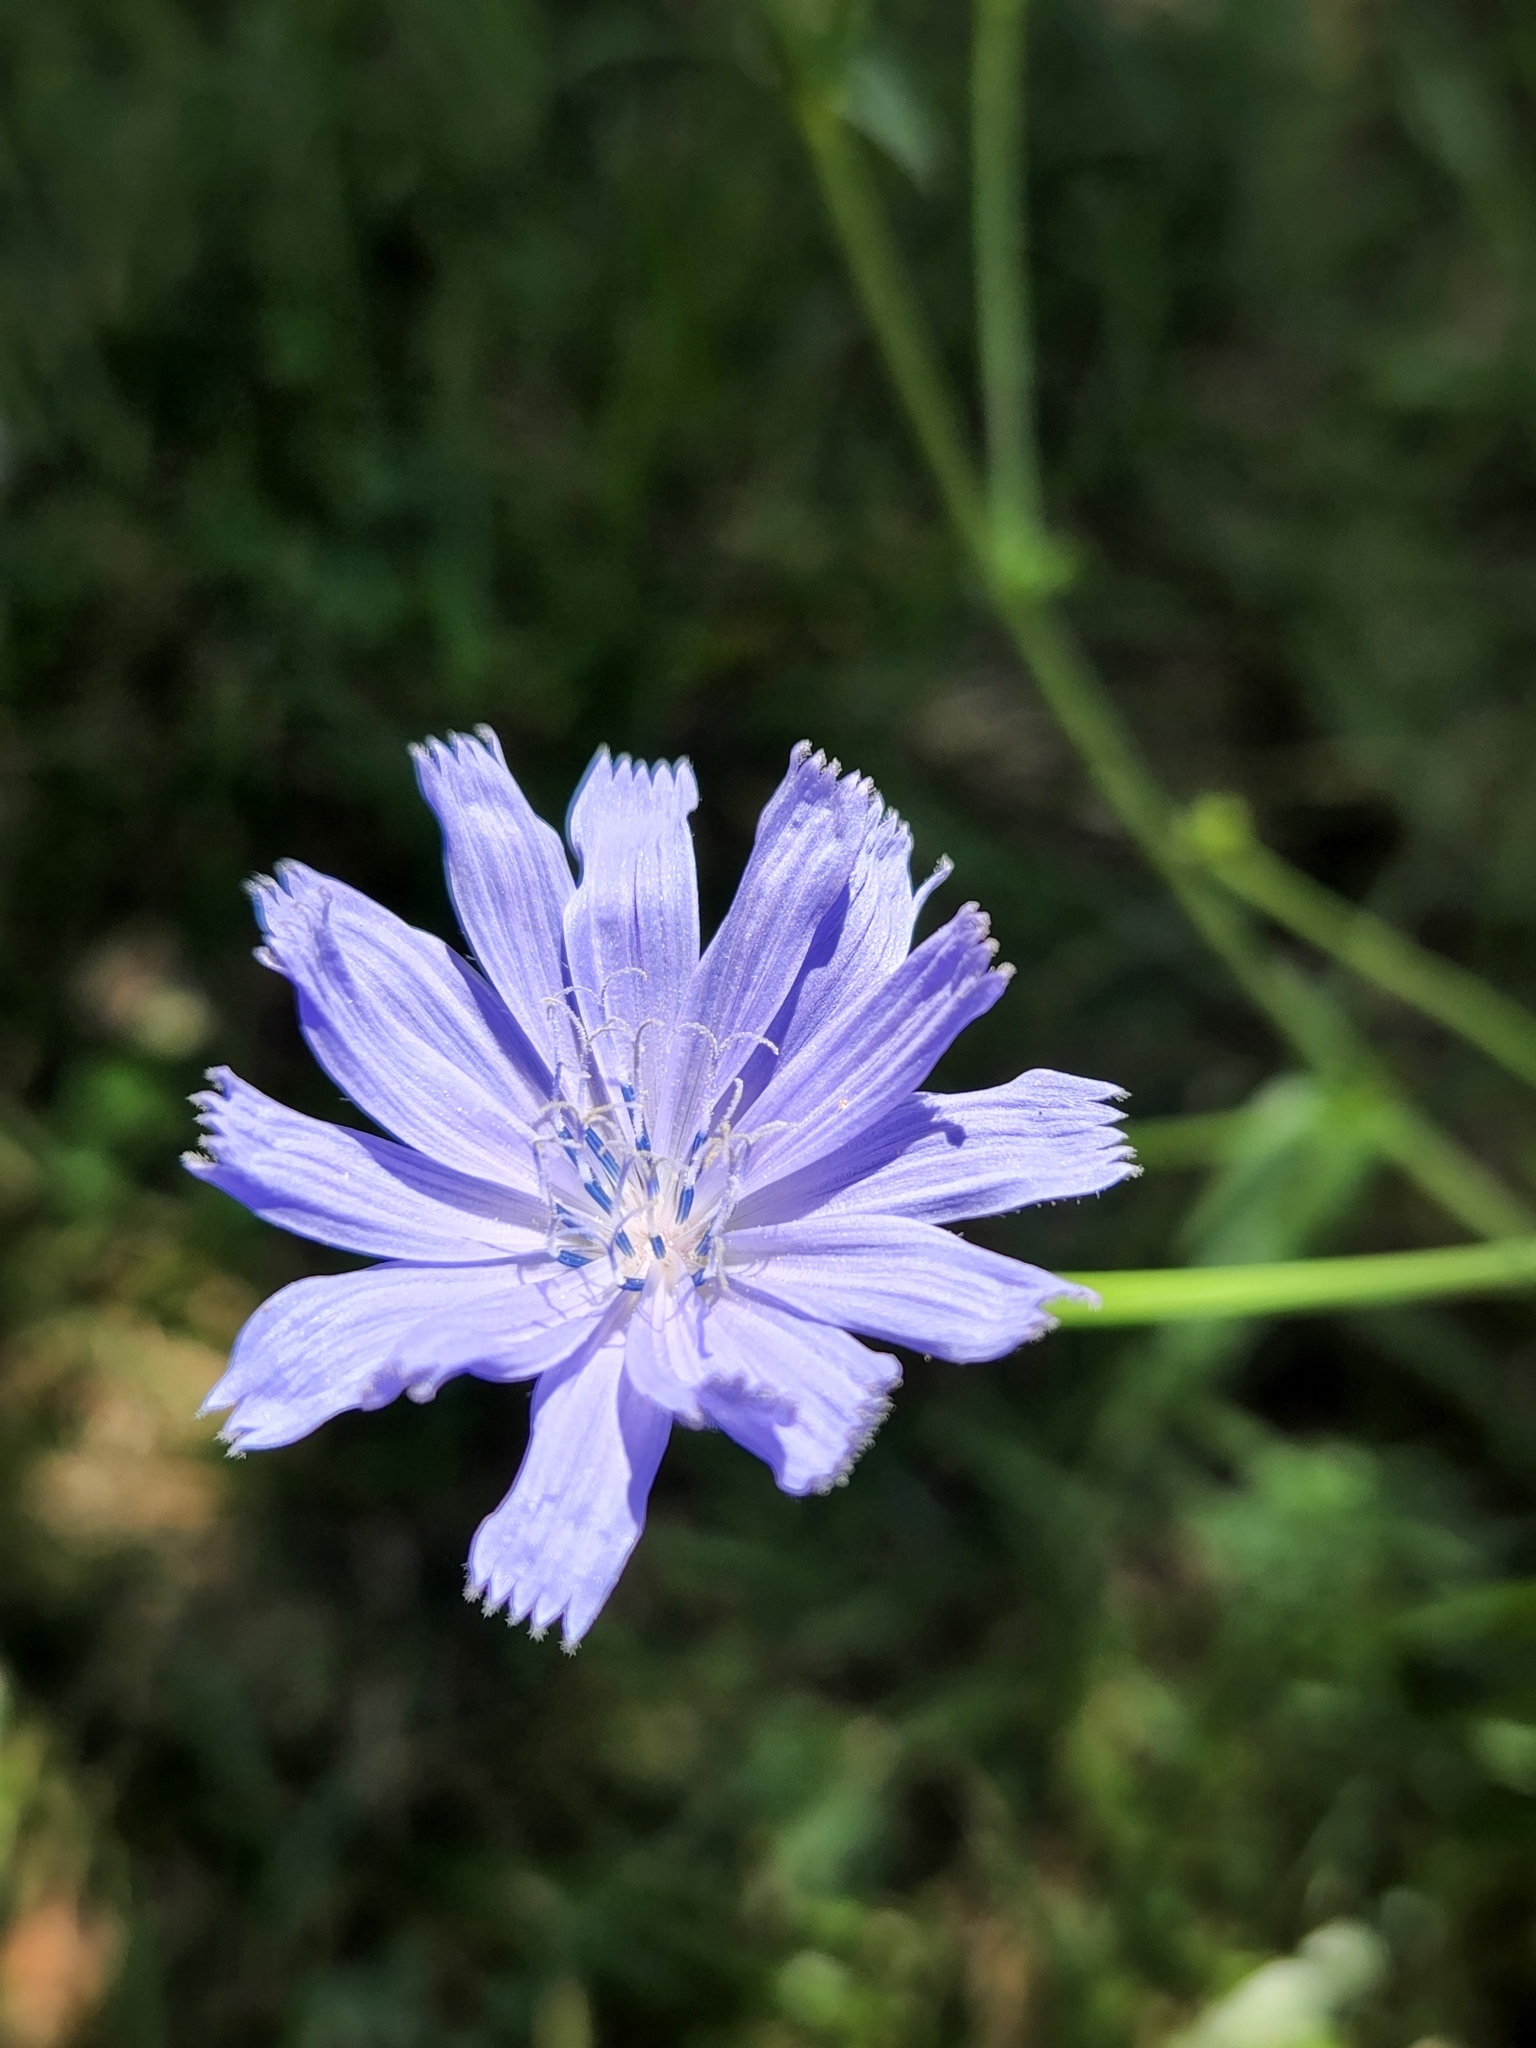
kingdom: Plantae
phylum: Tracheophyta
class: Magnoliopsida
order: Asterales
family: Asteraceae
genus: Cichorium
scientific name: Cichorium intybus
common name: Chicory
